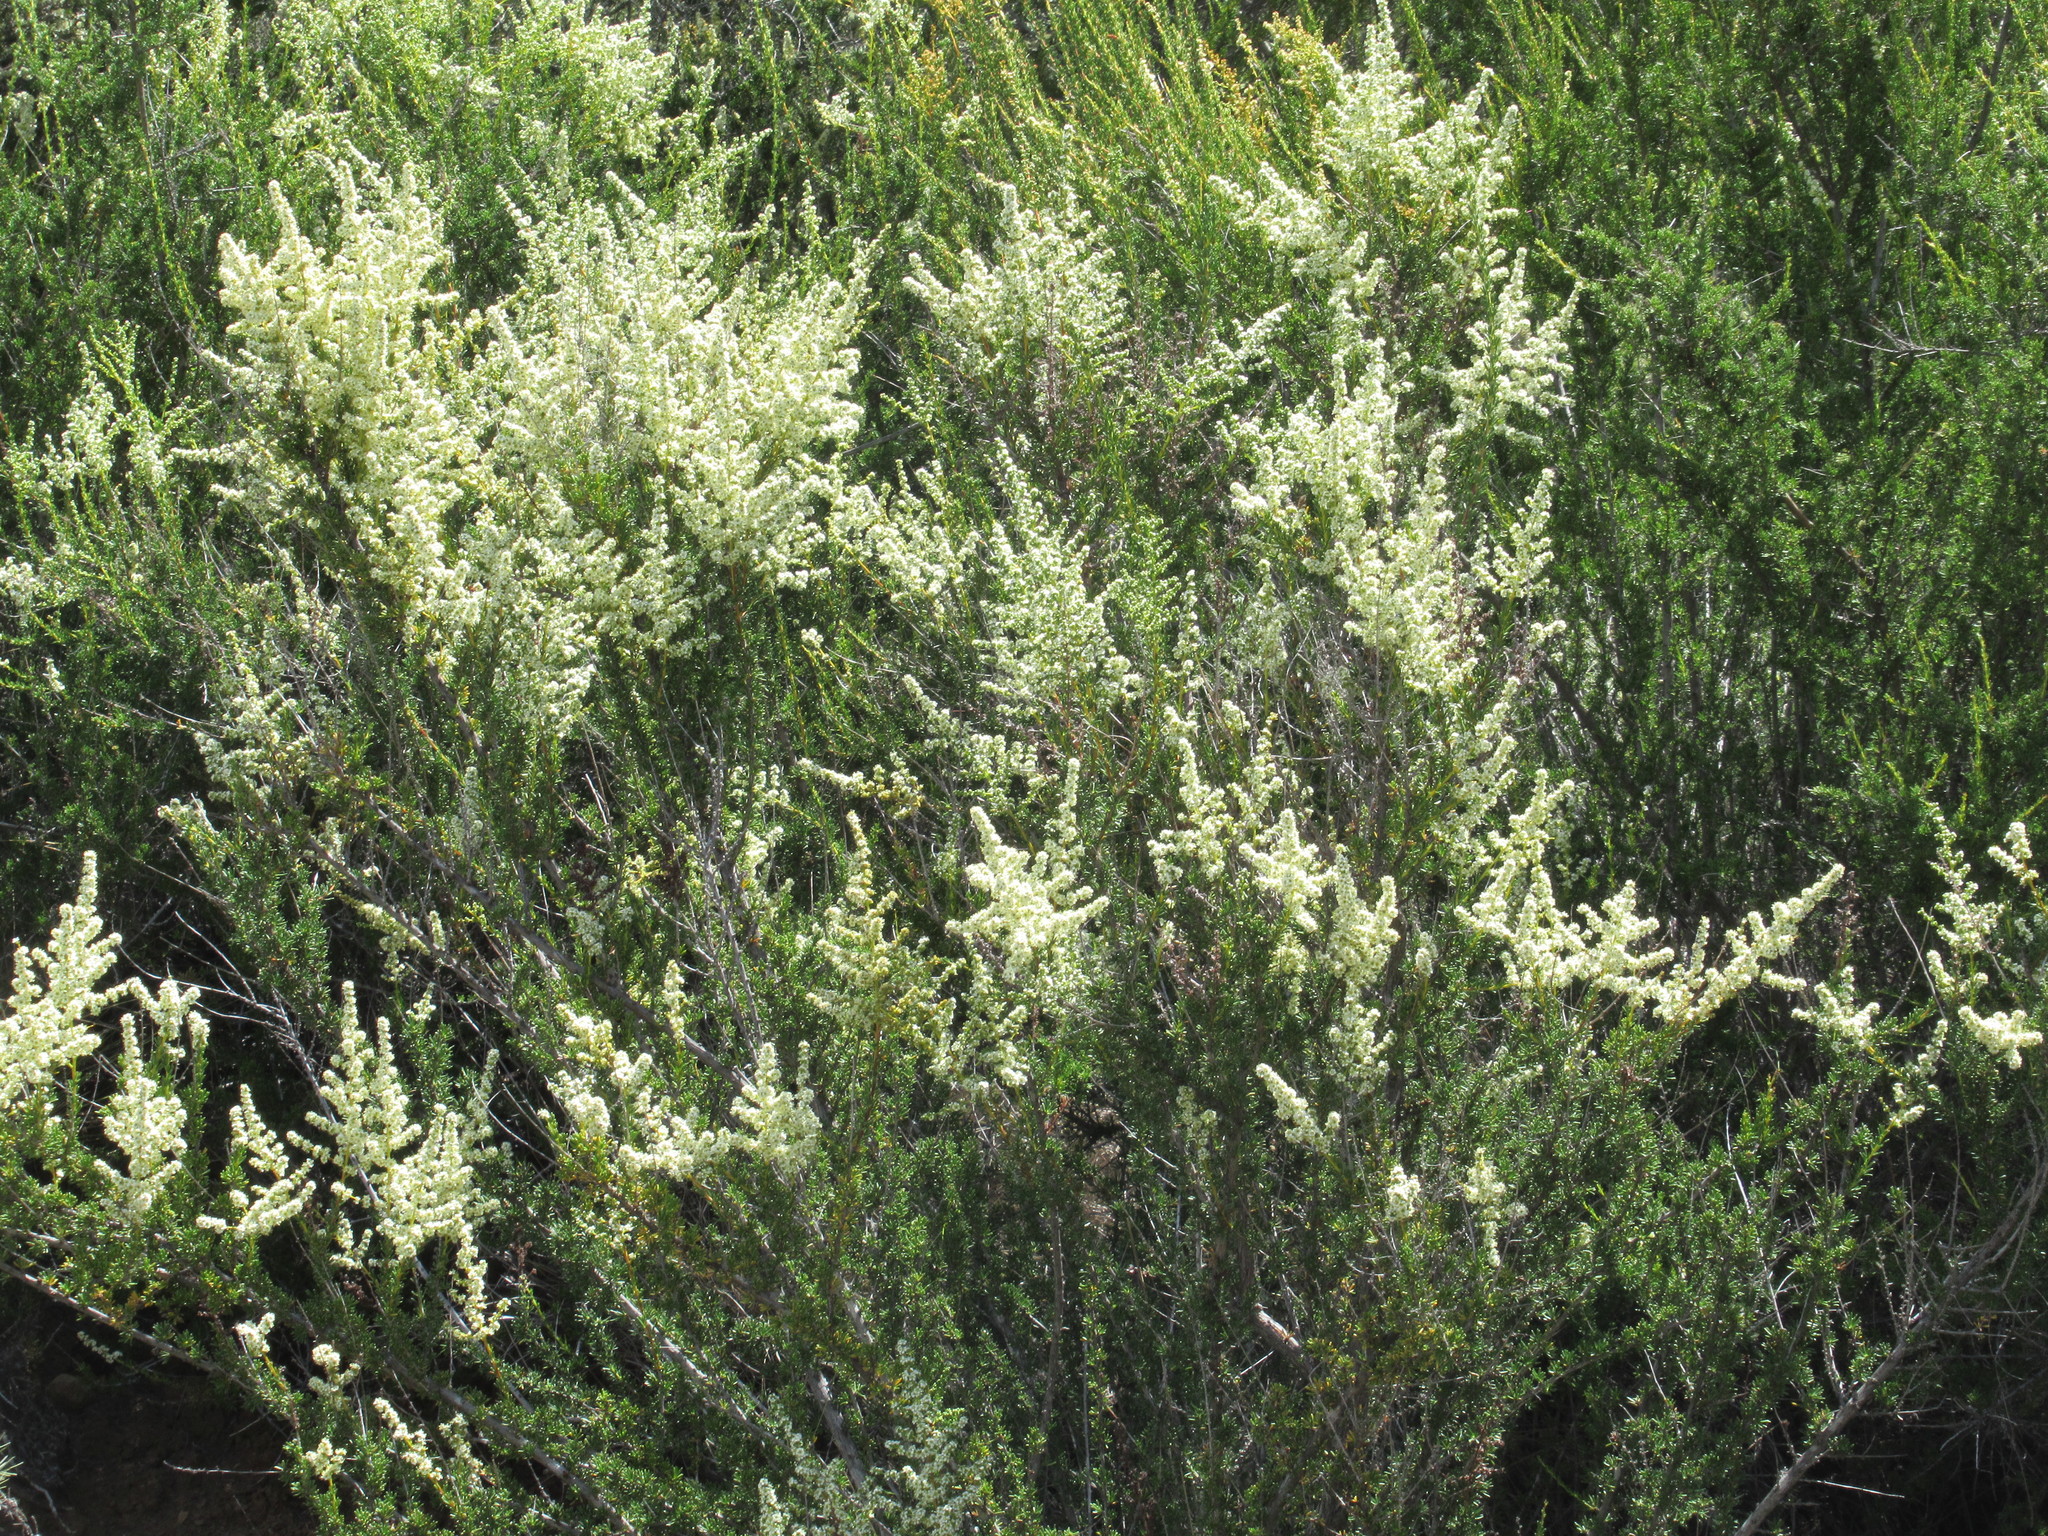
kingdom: Plantae
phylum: Tracheophyta
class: Magnoliopsida
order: Rosales
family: Rosaceae
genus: Adenostoma
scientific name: Adenostoma fasciculatum
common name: Chamise
